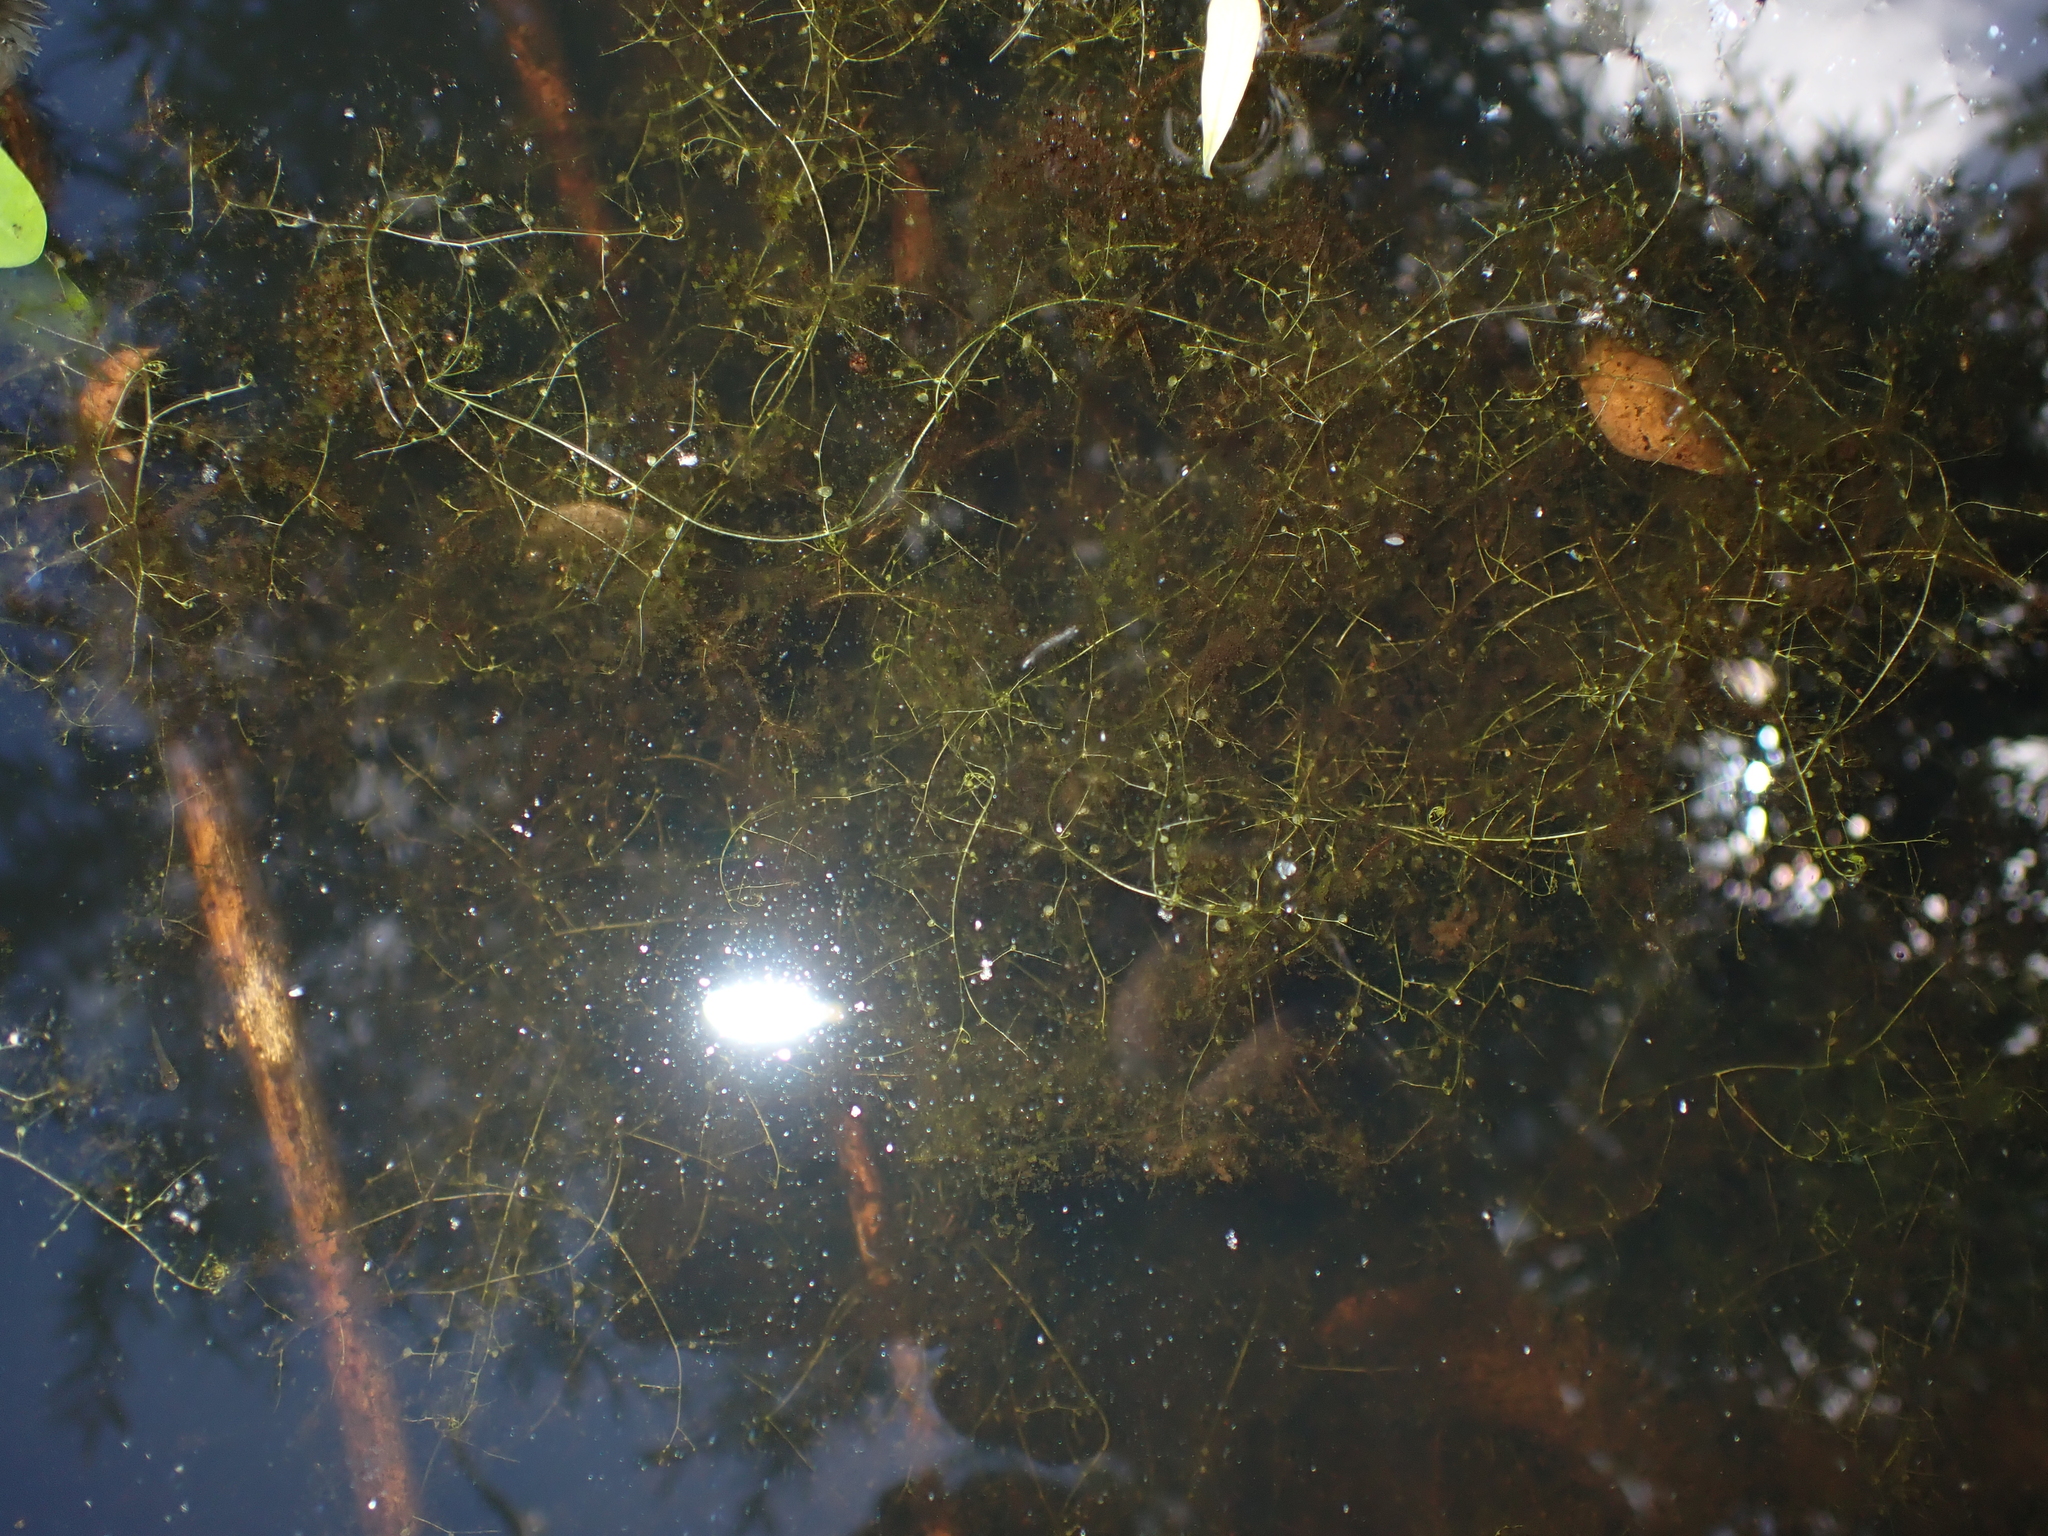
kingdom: Plantae
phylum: Tracheophyta
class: Magnoliopsida
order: Lamiales
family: Lentibulariaceae
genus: Utricularia
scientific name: Utricularia gibba
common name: Humped bladderwort
